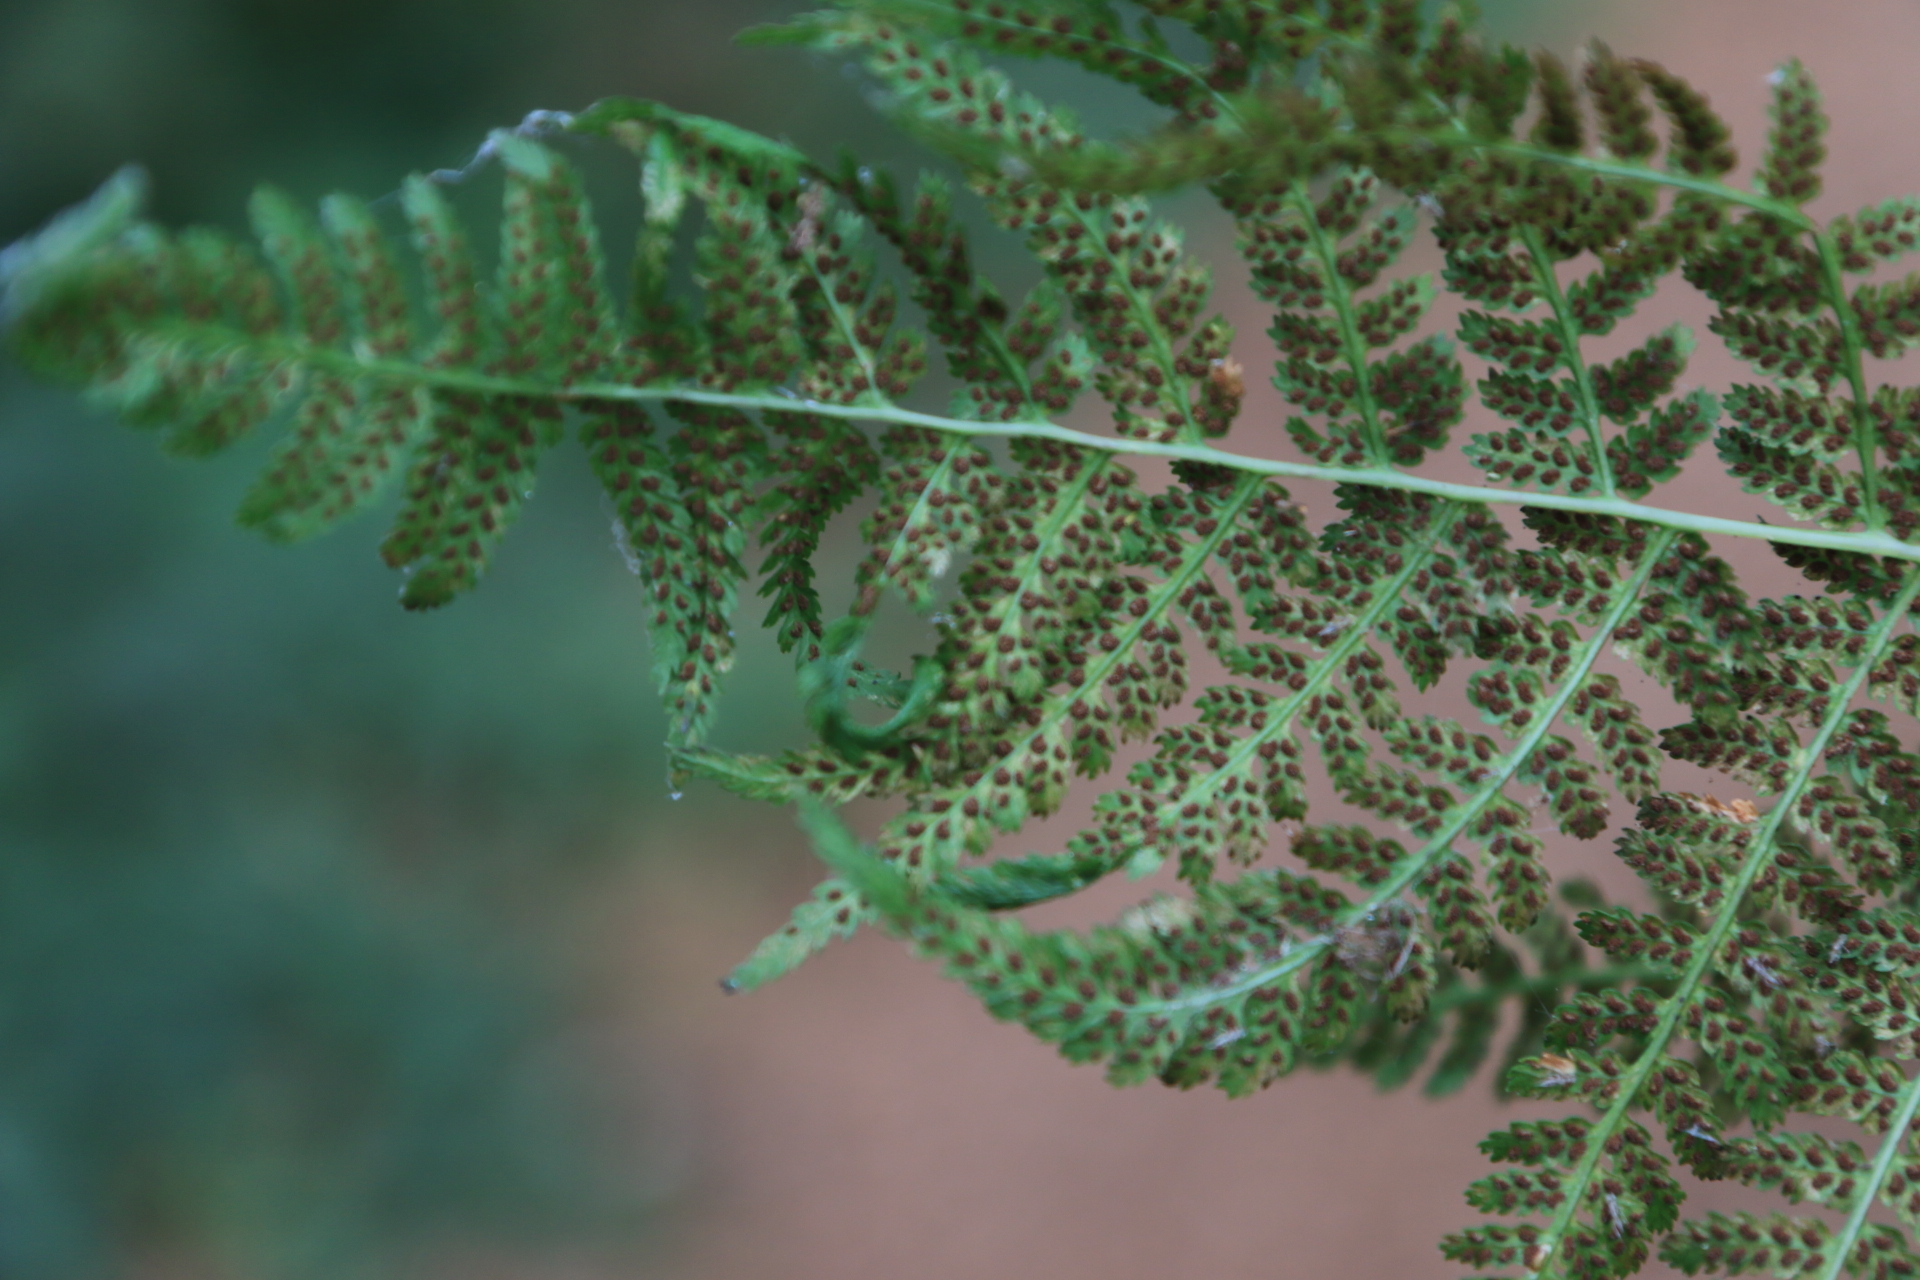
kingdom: Plantae
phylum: Tracheophyta
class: Polypodiopsida
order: Polypodiales
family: Athyriaceae
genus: Athyrium
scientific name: Athyrium filix-femina
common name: Lady fern
